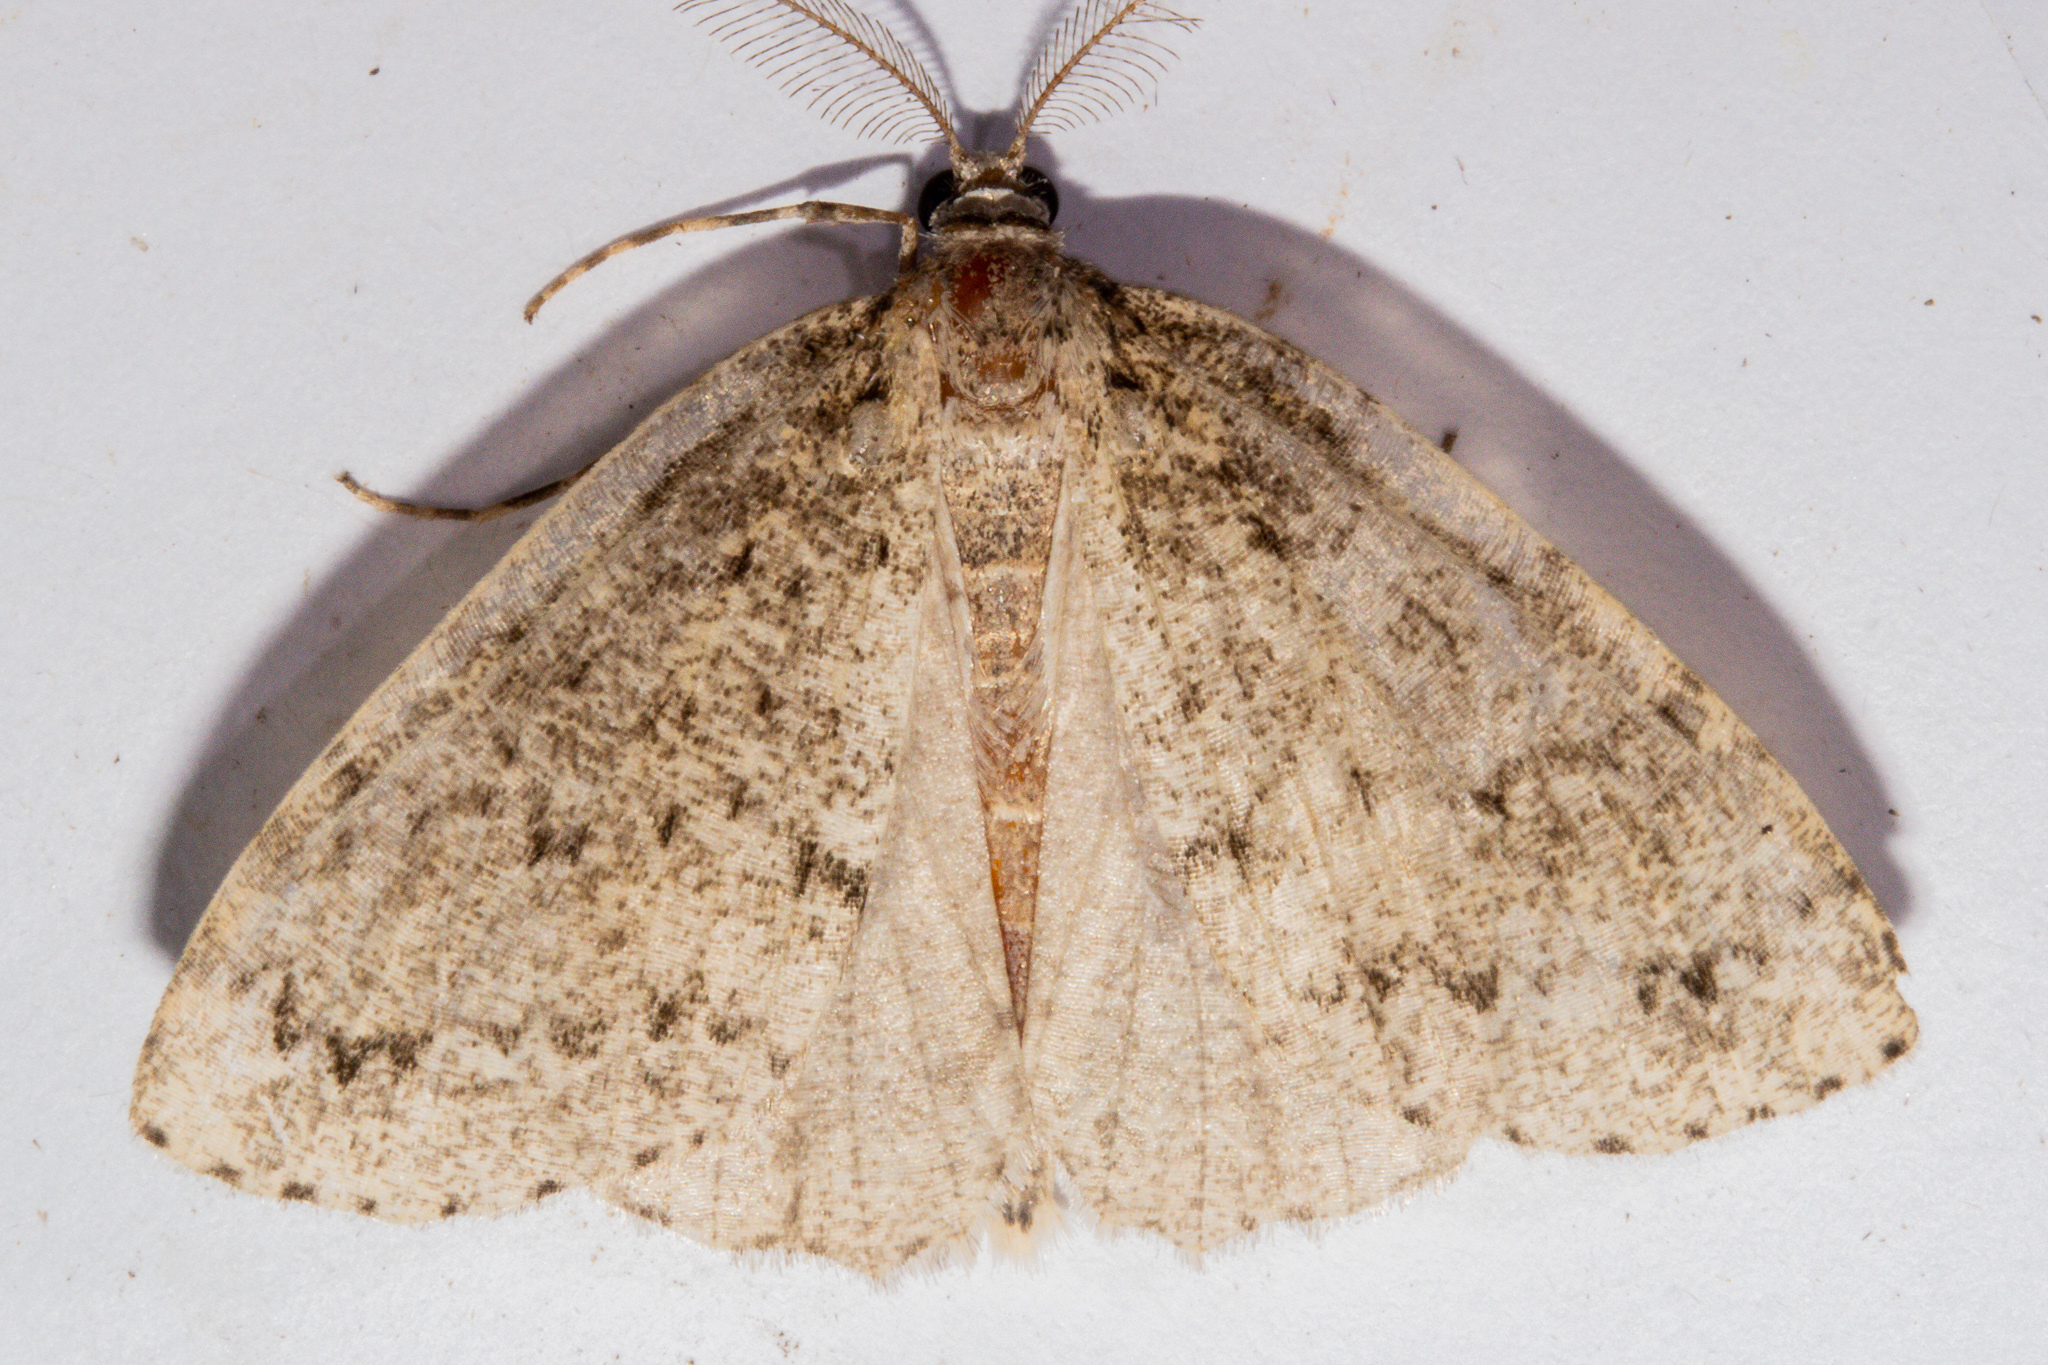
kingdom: Animalia
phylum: Arthropoda
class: Insecta
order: Lepidoptera
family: Geometridae
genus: Pseudocoremia
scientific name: Pseudocoremia rudisata
